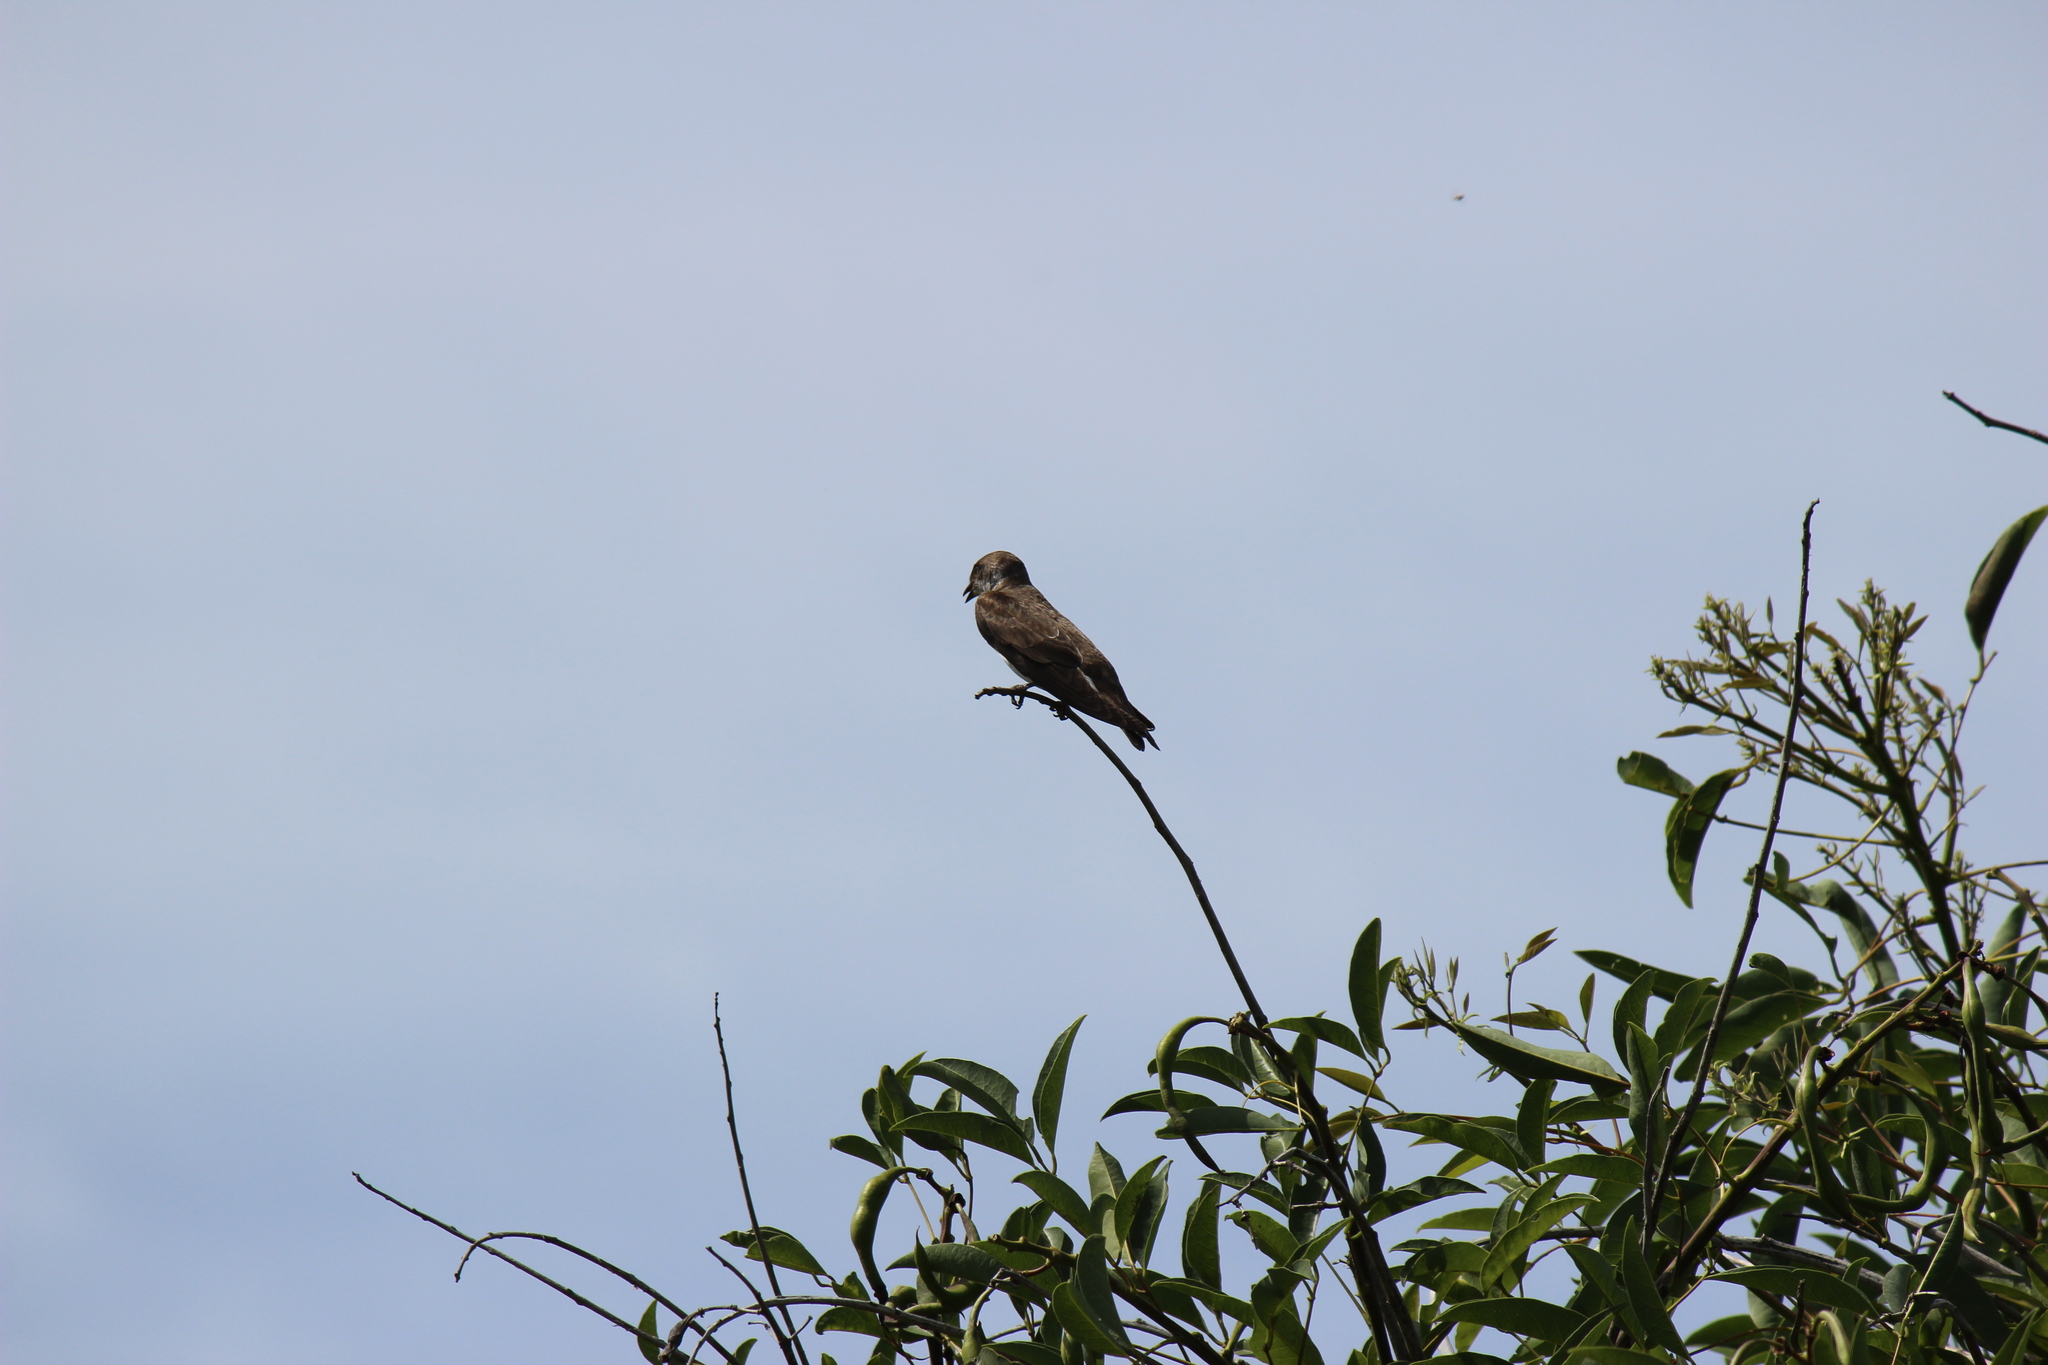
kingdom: Animalia
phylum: Chordata
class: Aves
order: Passeriformes
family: Hirundinidae
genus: Progne
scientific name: Progne tapera
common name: Brown-chested martin
